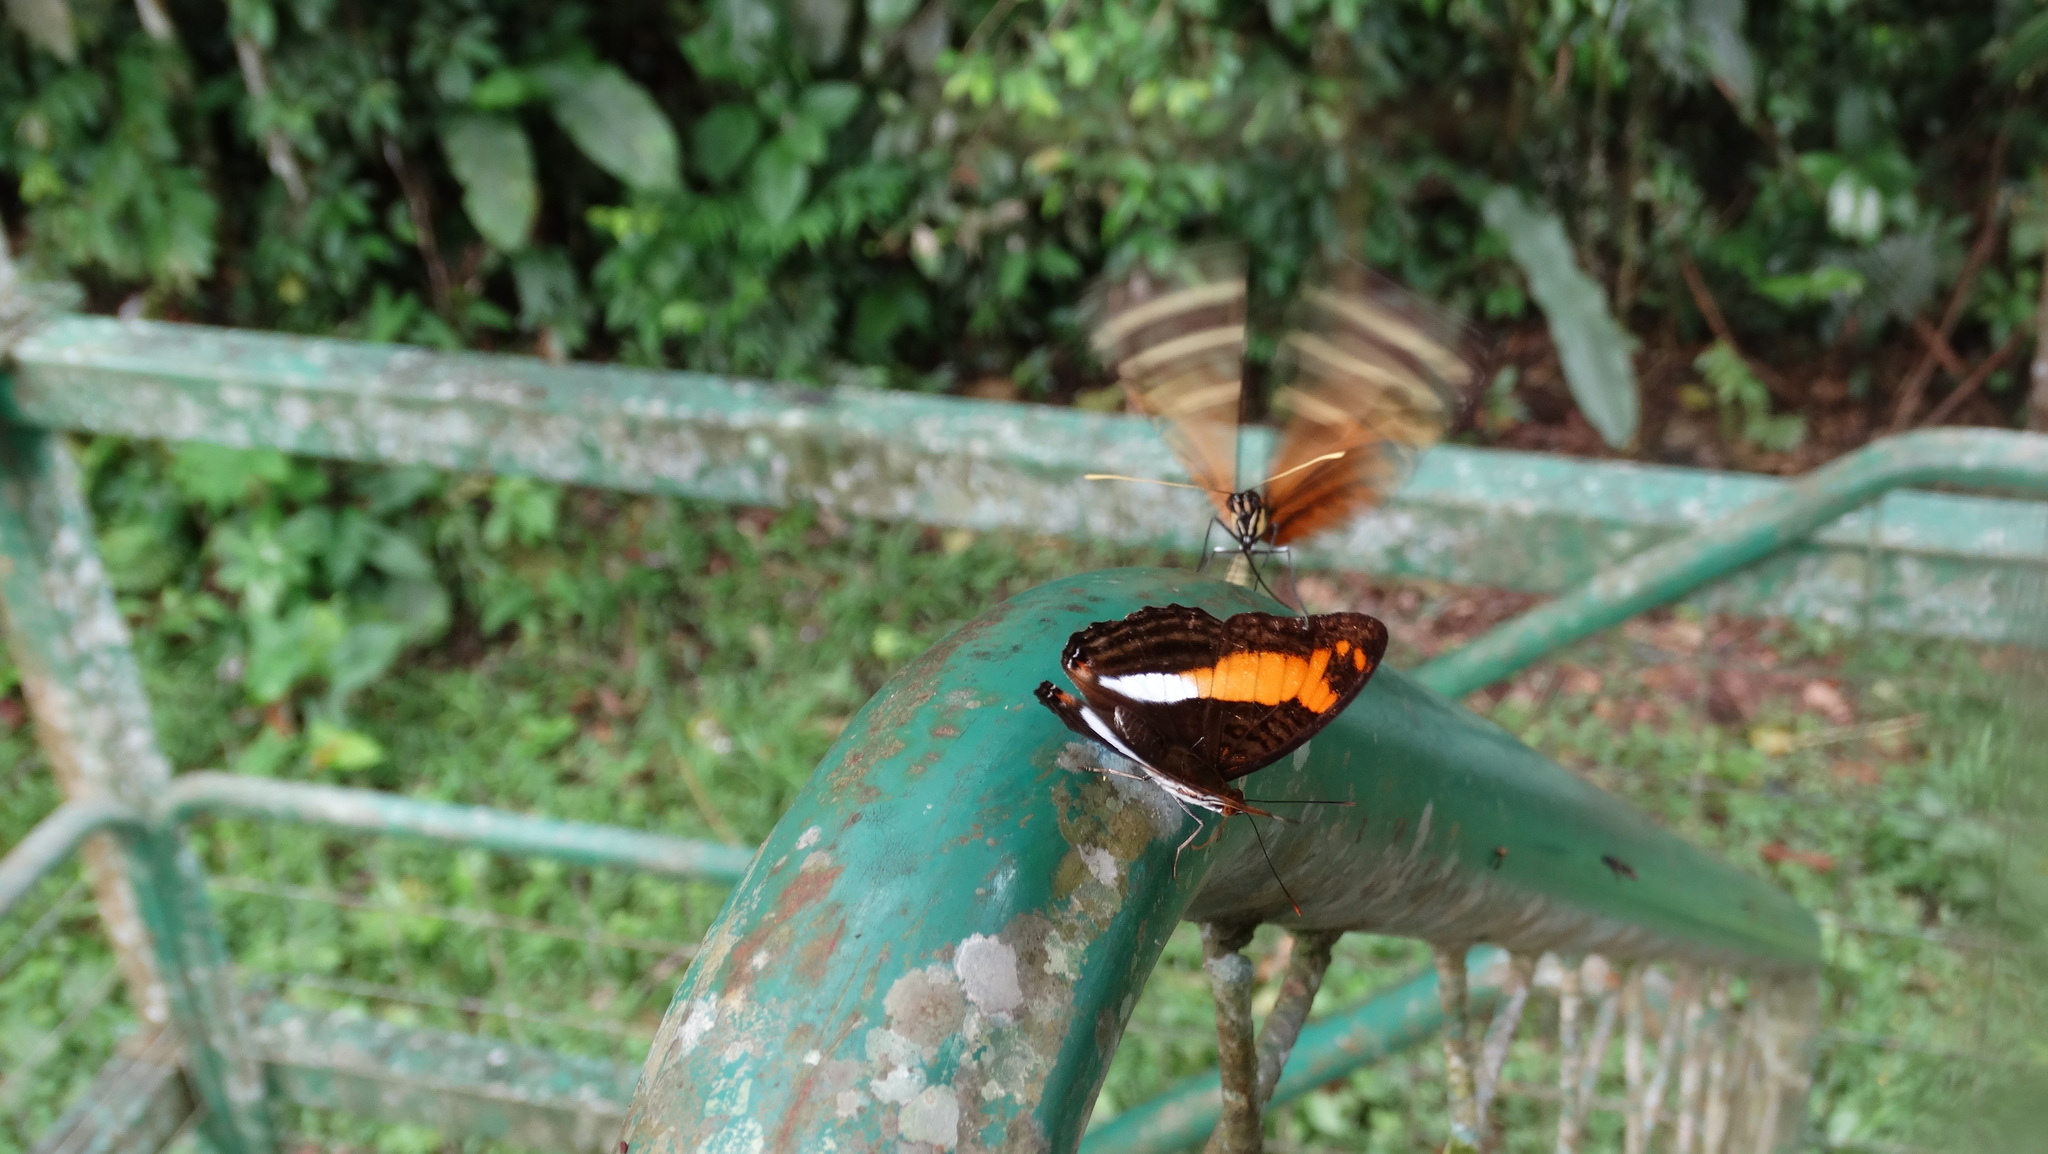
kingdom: Animalia
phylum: Arthropoda
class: Insecta
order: Lepidoptera
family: Nymphalidae
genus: Limenitis
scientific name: Limenitis attica
